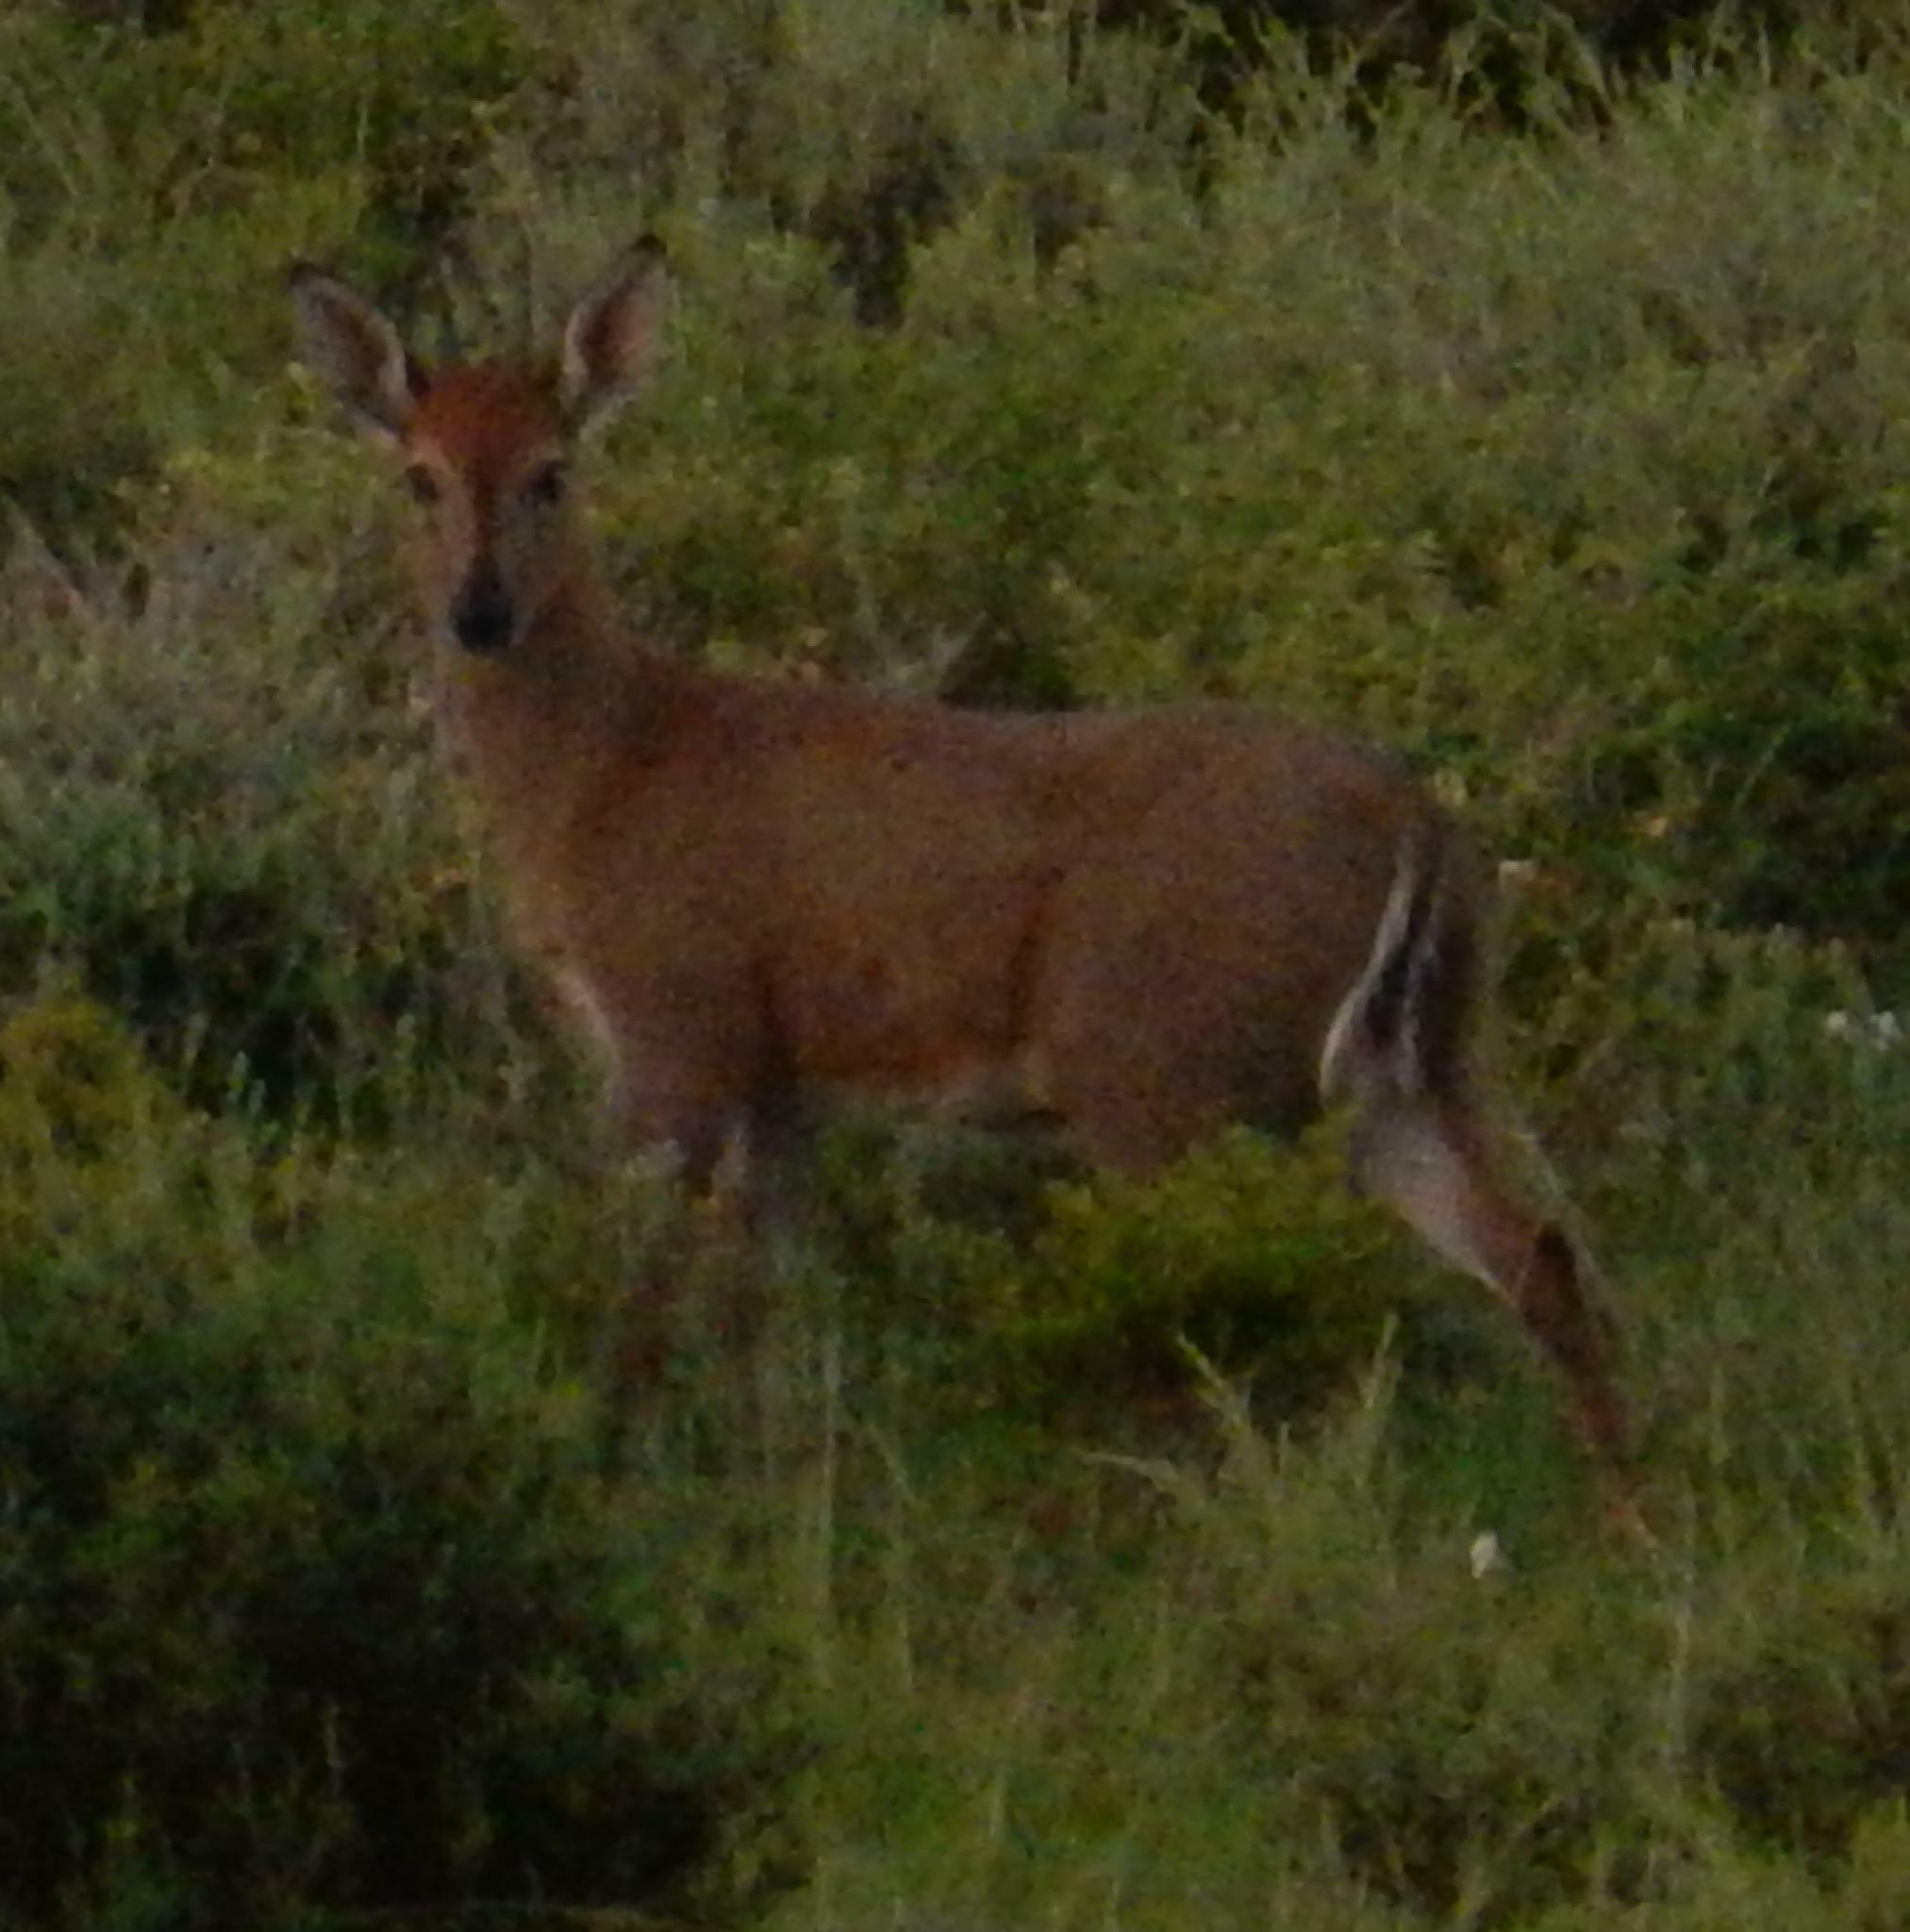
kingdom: Animalia
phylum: Chordata
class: Mammalia
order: Artiodactyla
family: Bovidae
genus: Sylvicapra
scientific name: Sylvicapra grimmia
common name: Bush duiker
